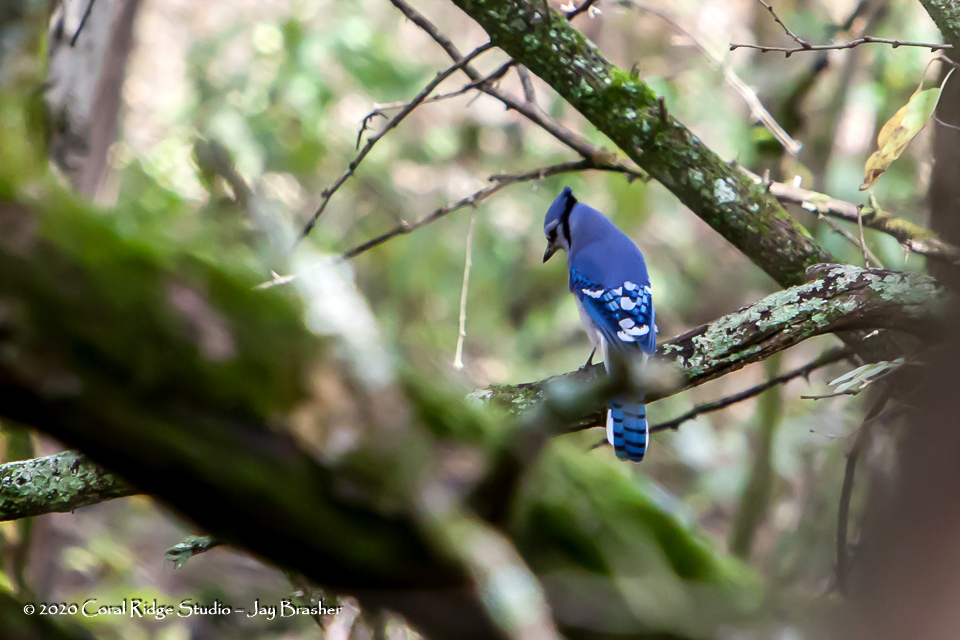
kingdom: Animalia
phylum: Chordata
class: Aves
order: Passeriformes
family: Corvidae
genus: Cyanocitta
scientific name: Cyanocitta cristata
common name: Blue jay
